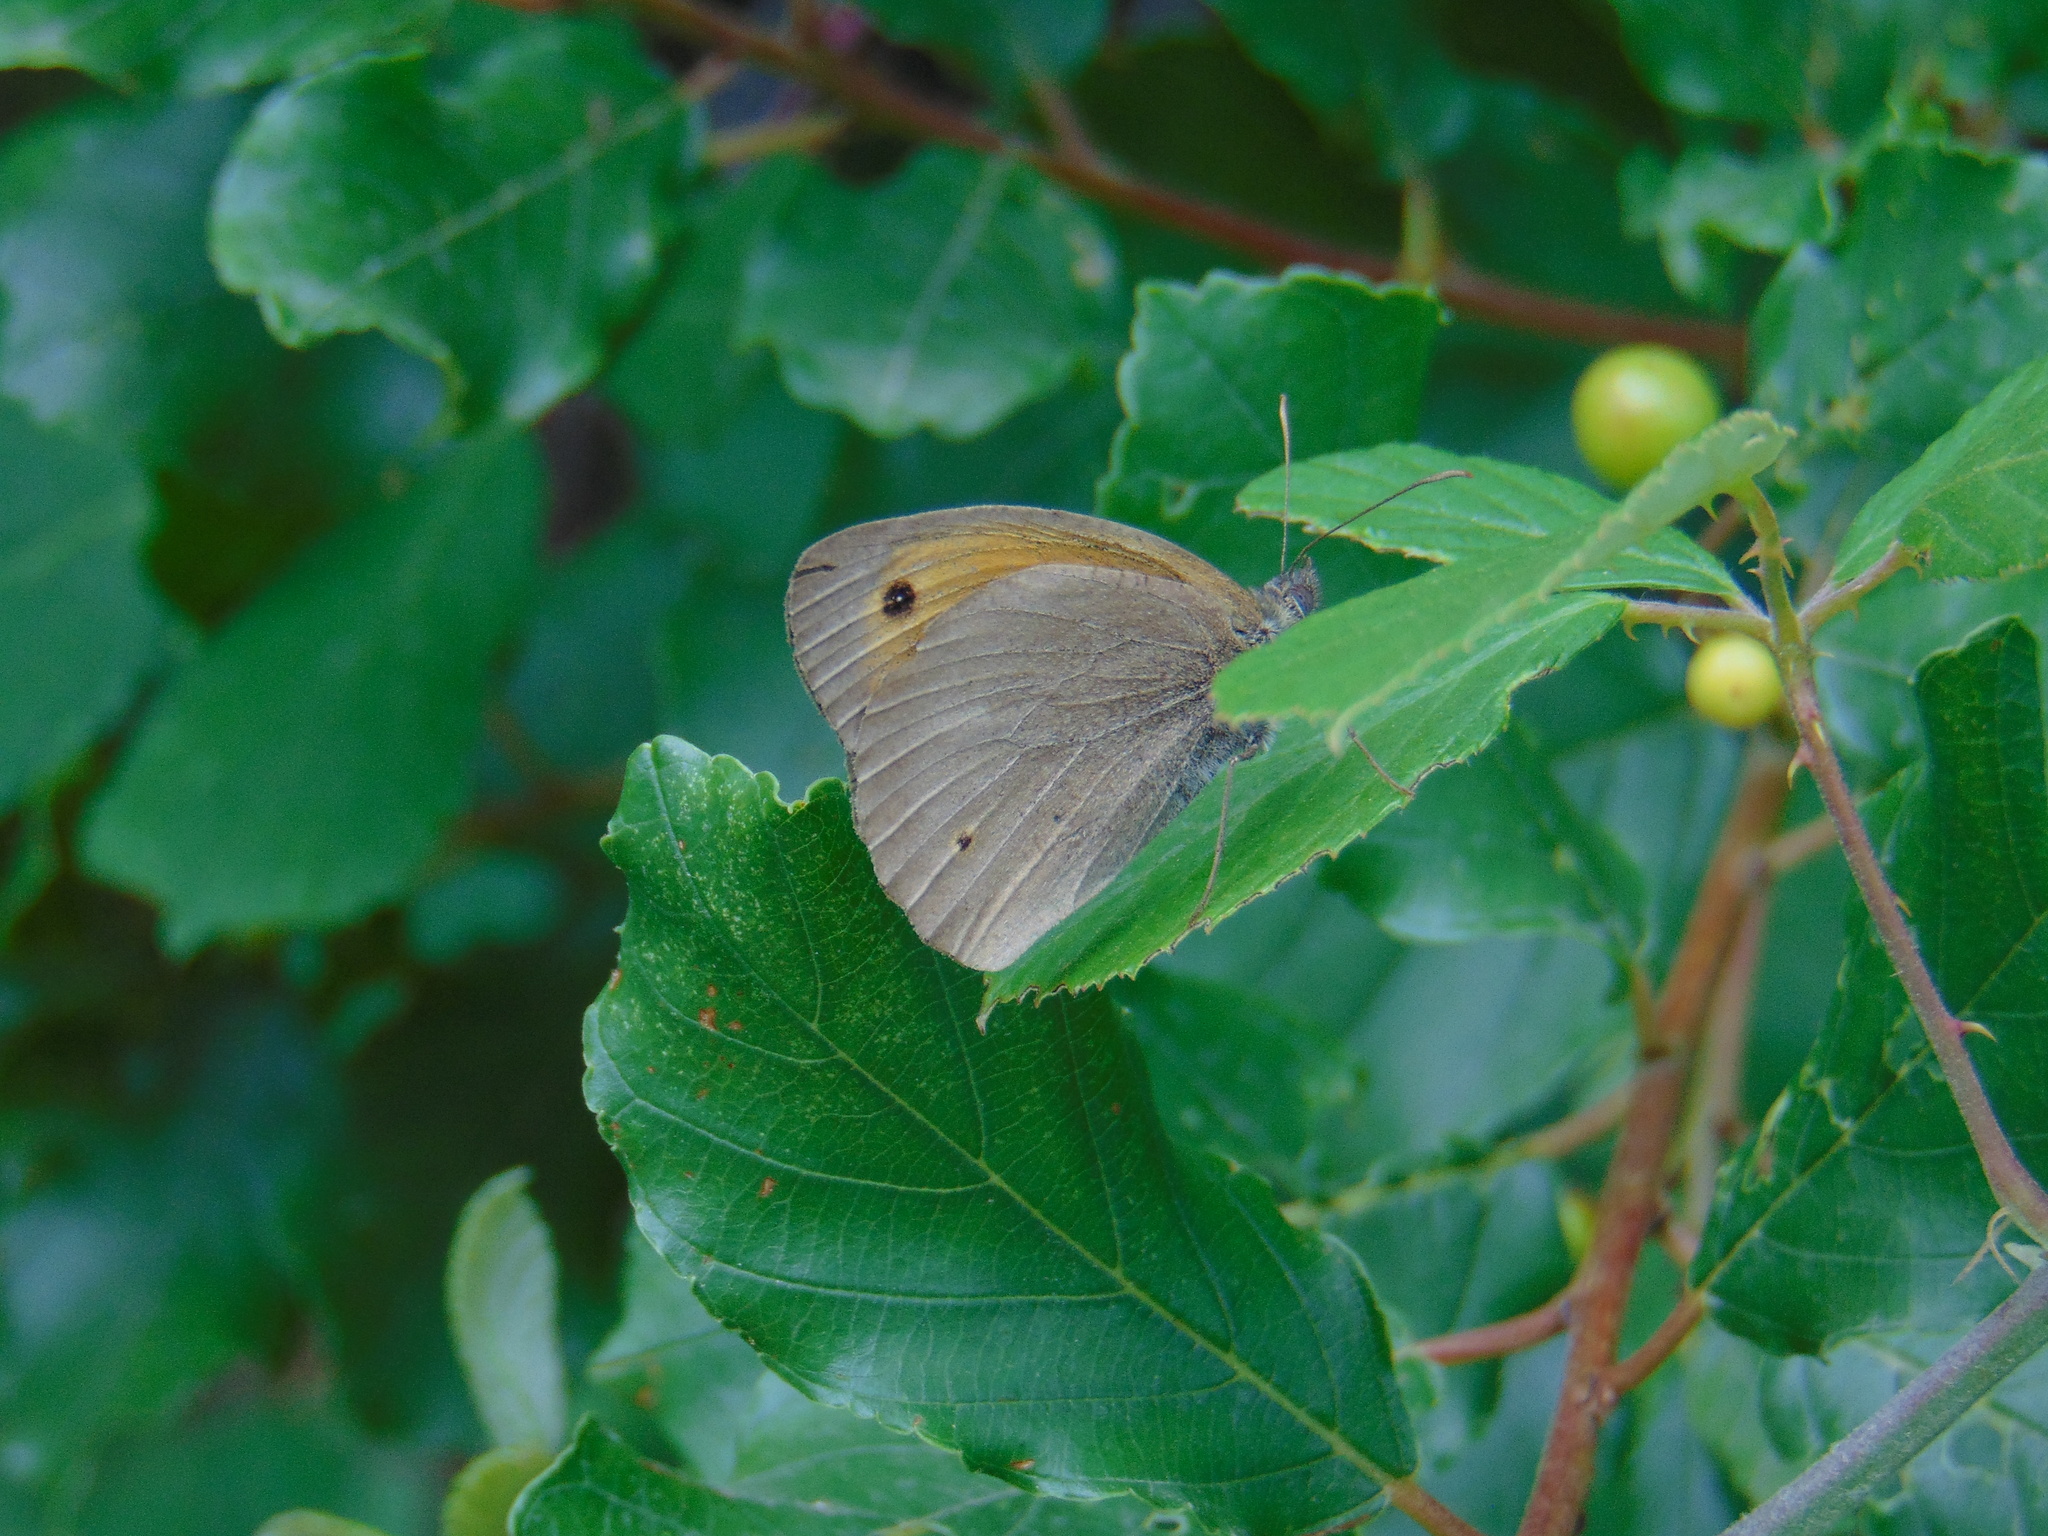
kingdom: Animalia
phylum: Arthropoda
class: Insecta
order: Lepidoptera
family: Nymphalidae
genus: Maniola
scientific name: Maniola jurtina
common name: Meadow brown
